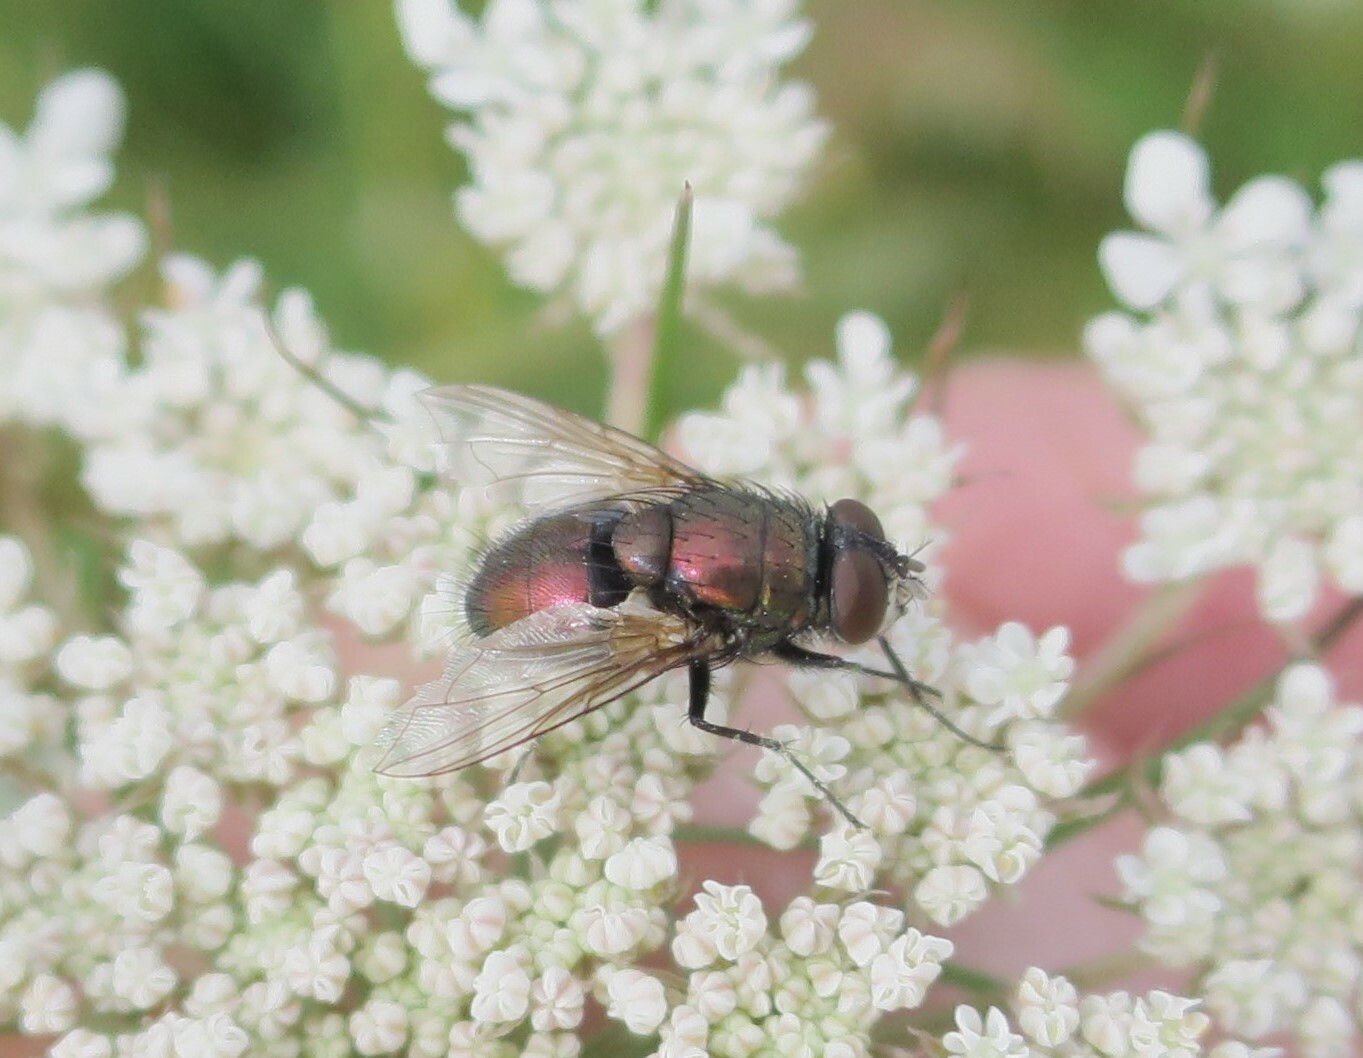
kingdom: Animalia
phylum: Arthropoda
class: Insecta
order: Diptera
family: Calliphoridae
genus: Lucilia
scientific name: Lucilia sericata
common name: Blow fly
